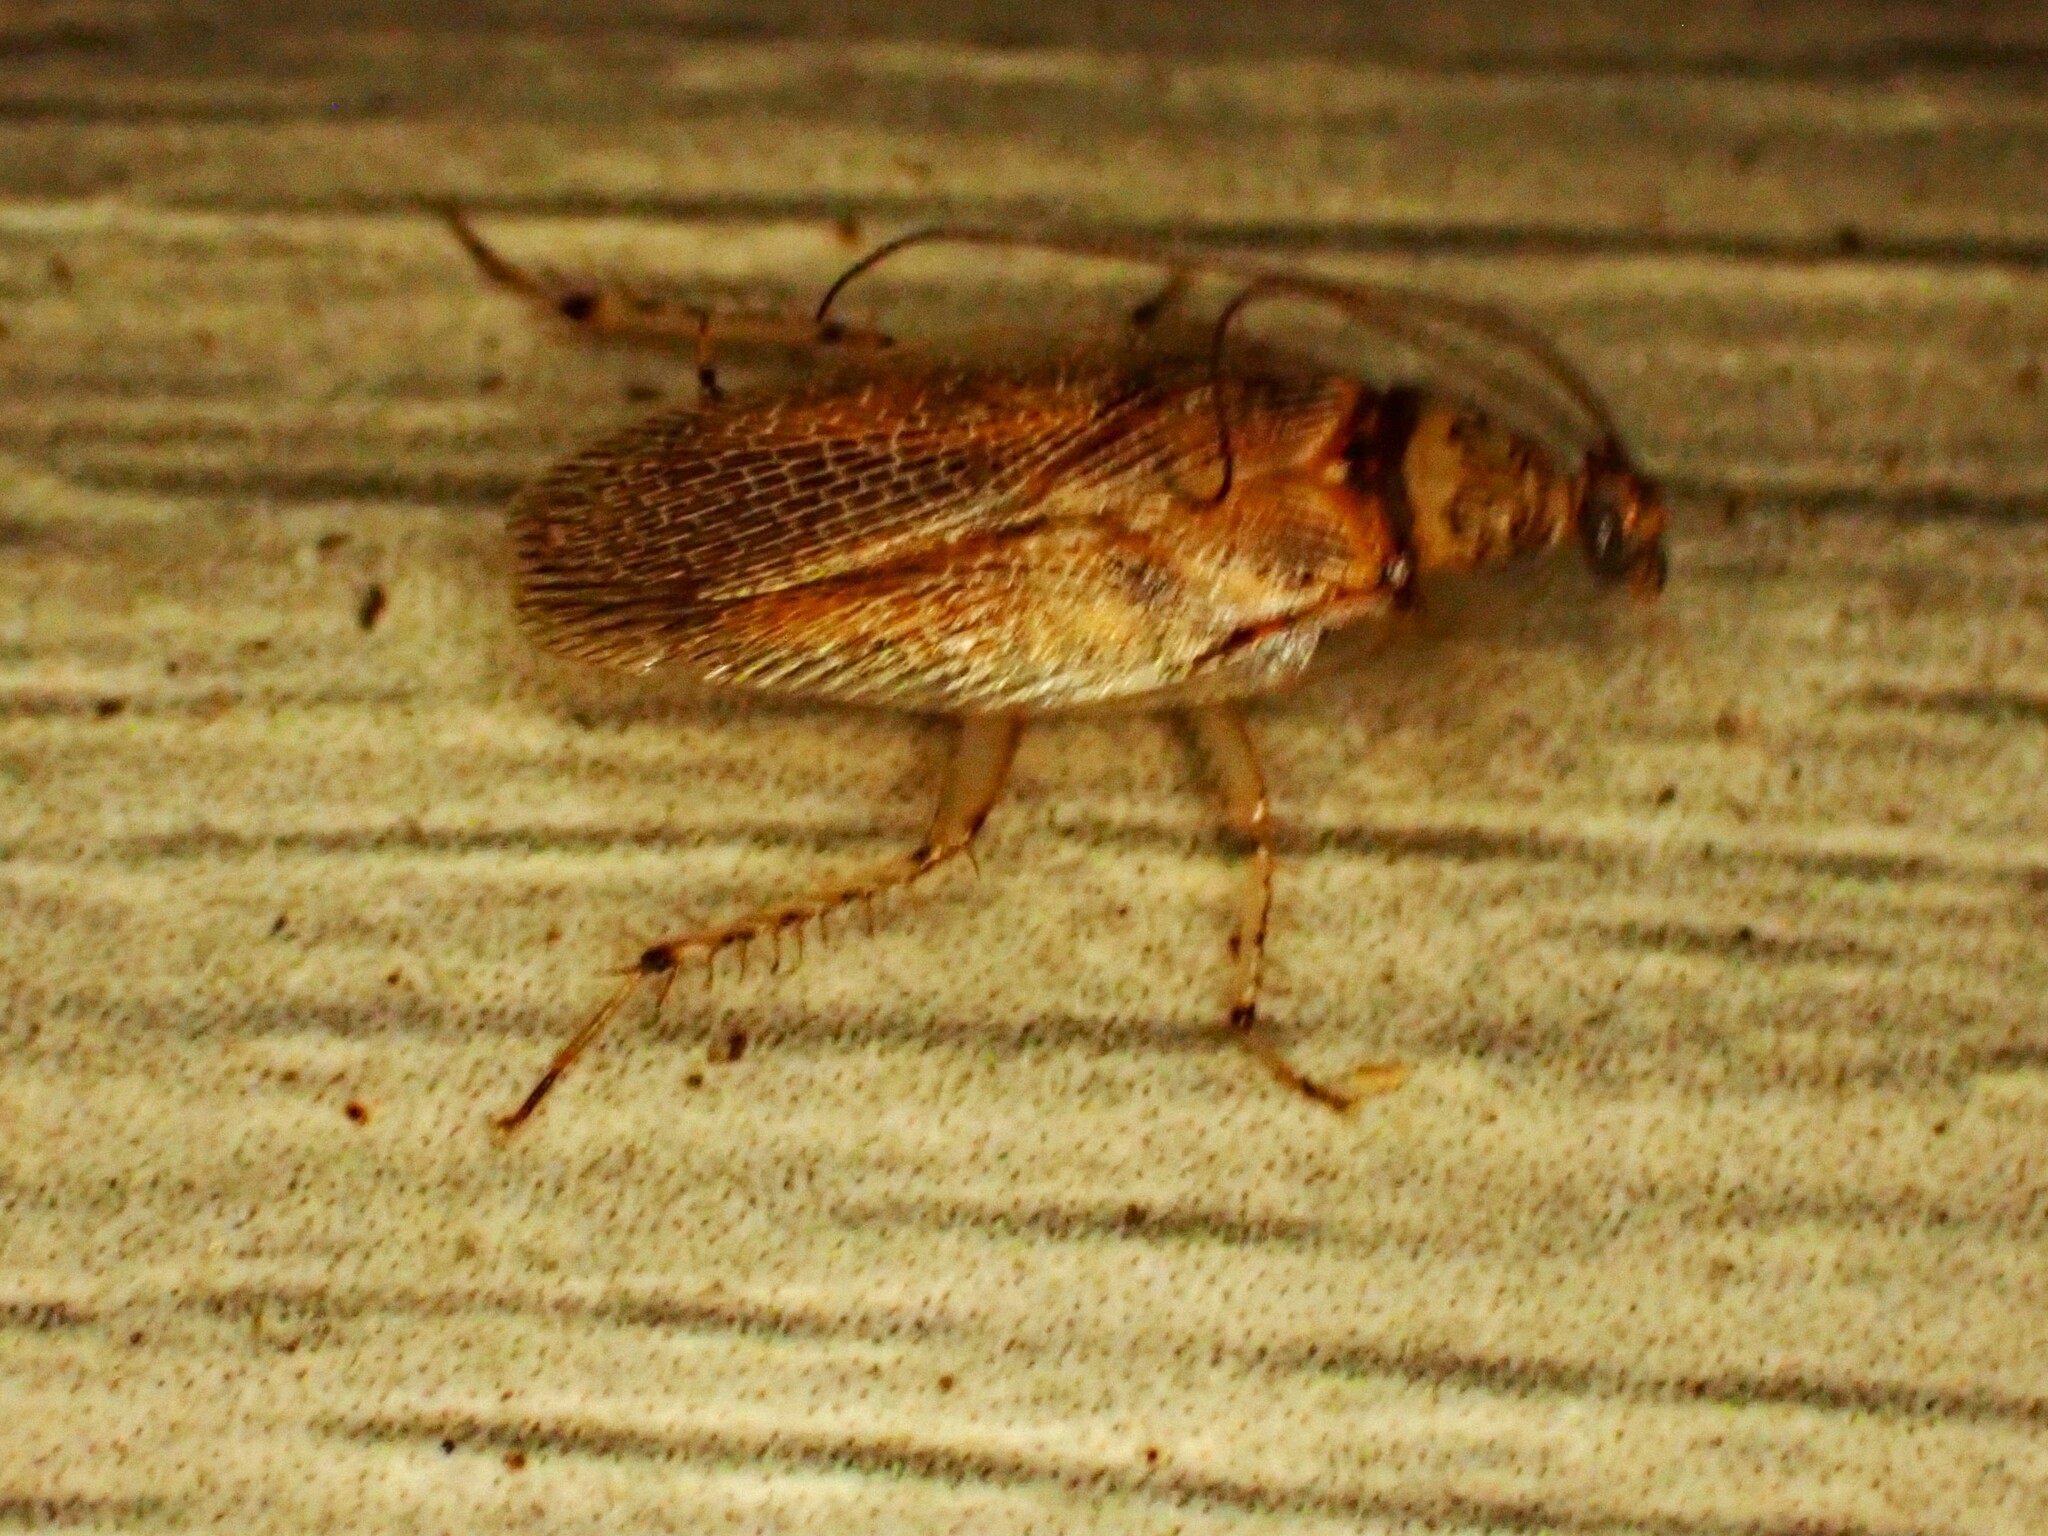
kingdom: Animalia
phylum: Arthropoda
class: Insecta
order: Blattodea
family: Ectobiidae
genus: Balta
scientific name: Balta notulata
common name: Cockroach
